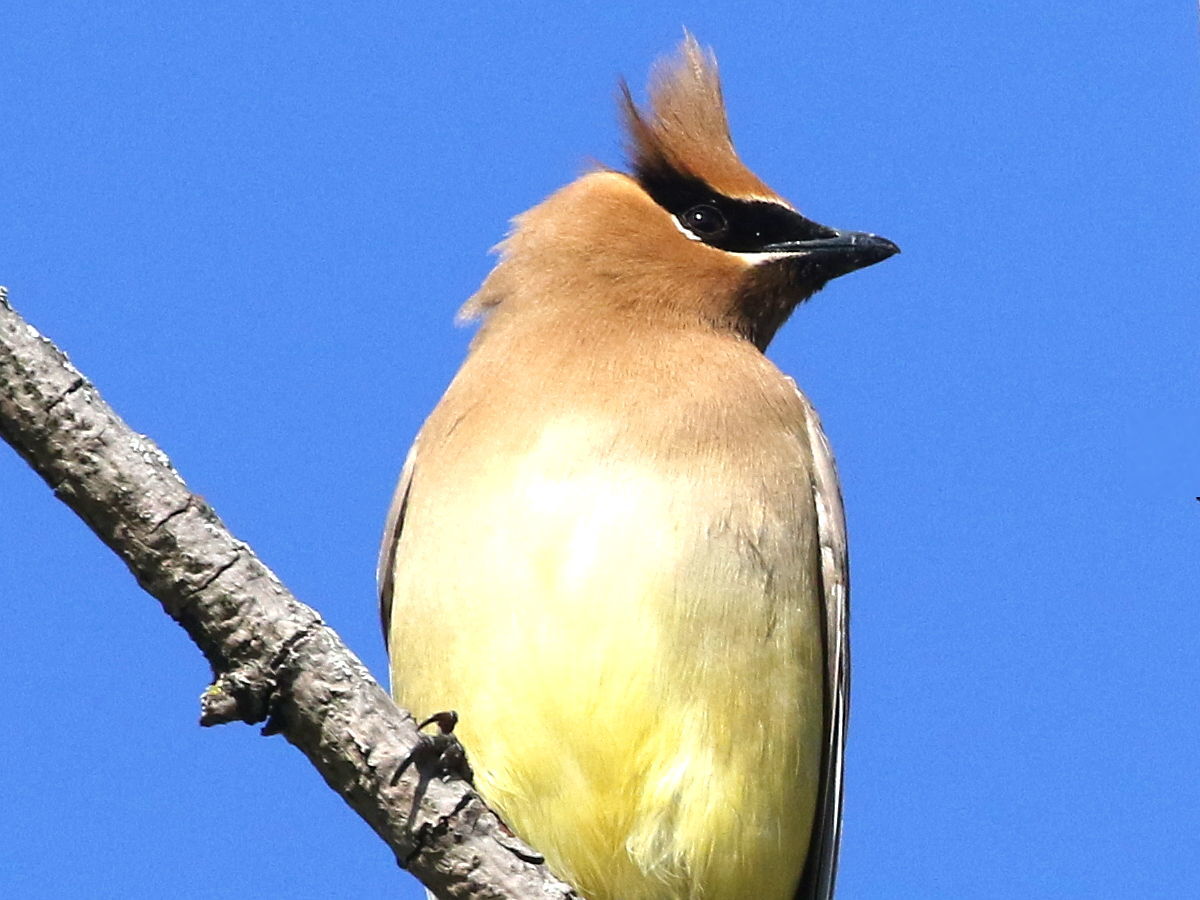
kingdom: Animalia
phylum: Chordata
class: Aves
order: Passeriformes
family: Bombycillidae
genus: Bombycilla
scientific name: Bombycilla cedrorum
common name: Cedar waxwing
